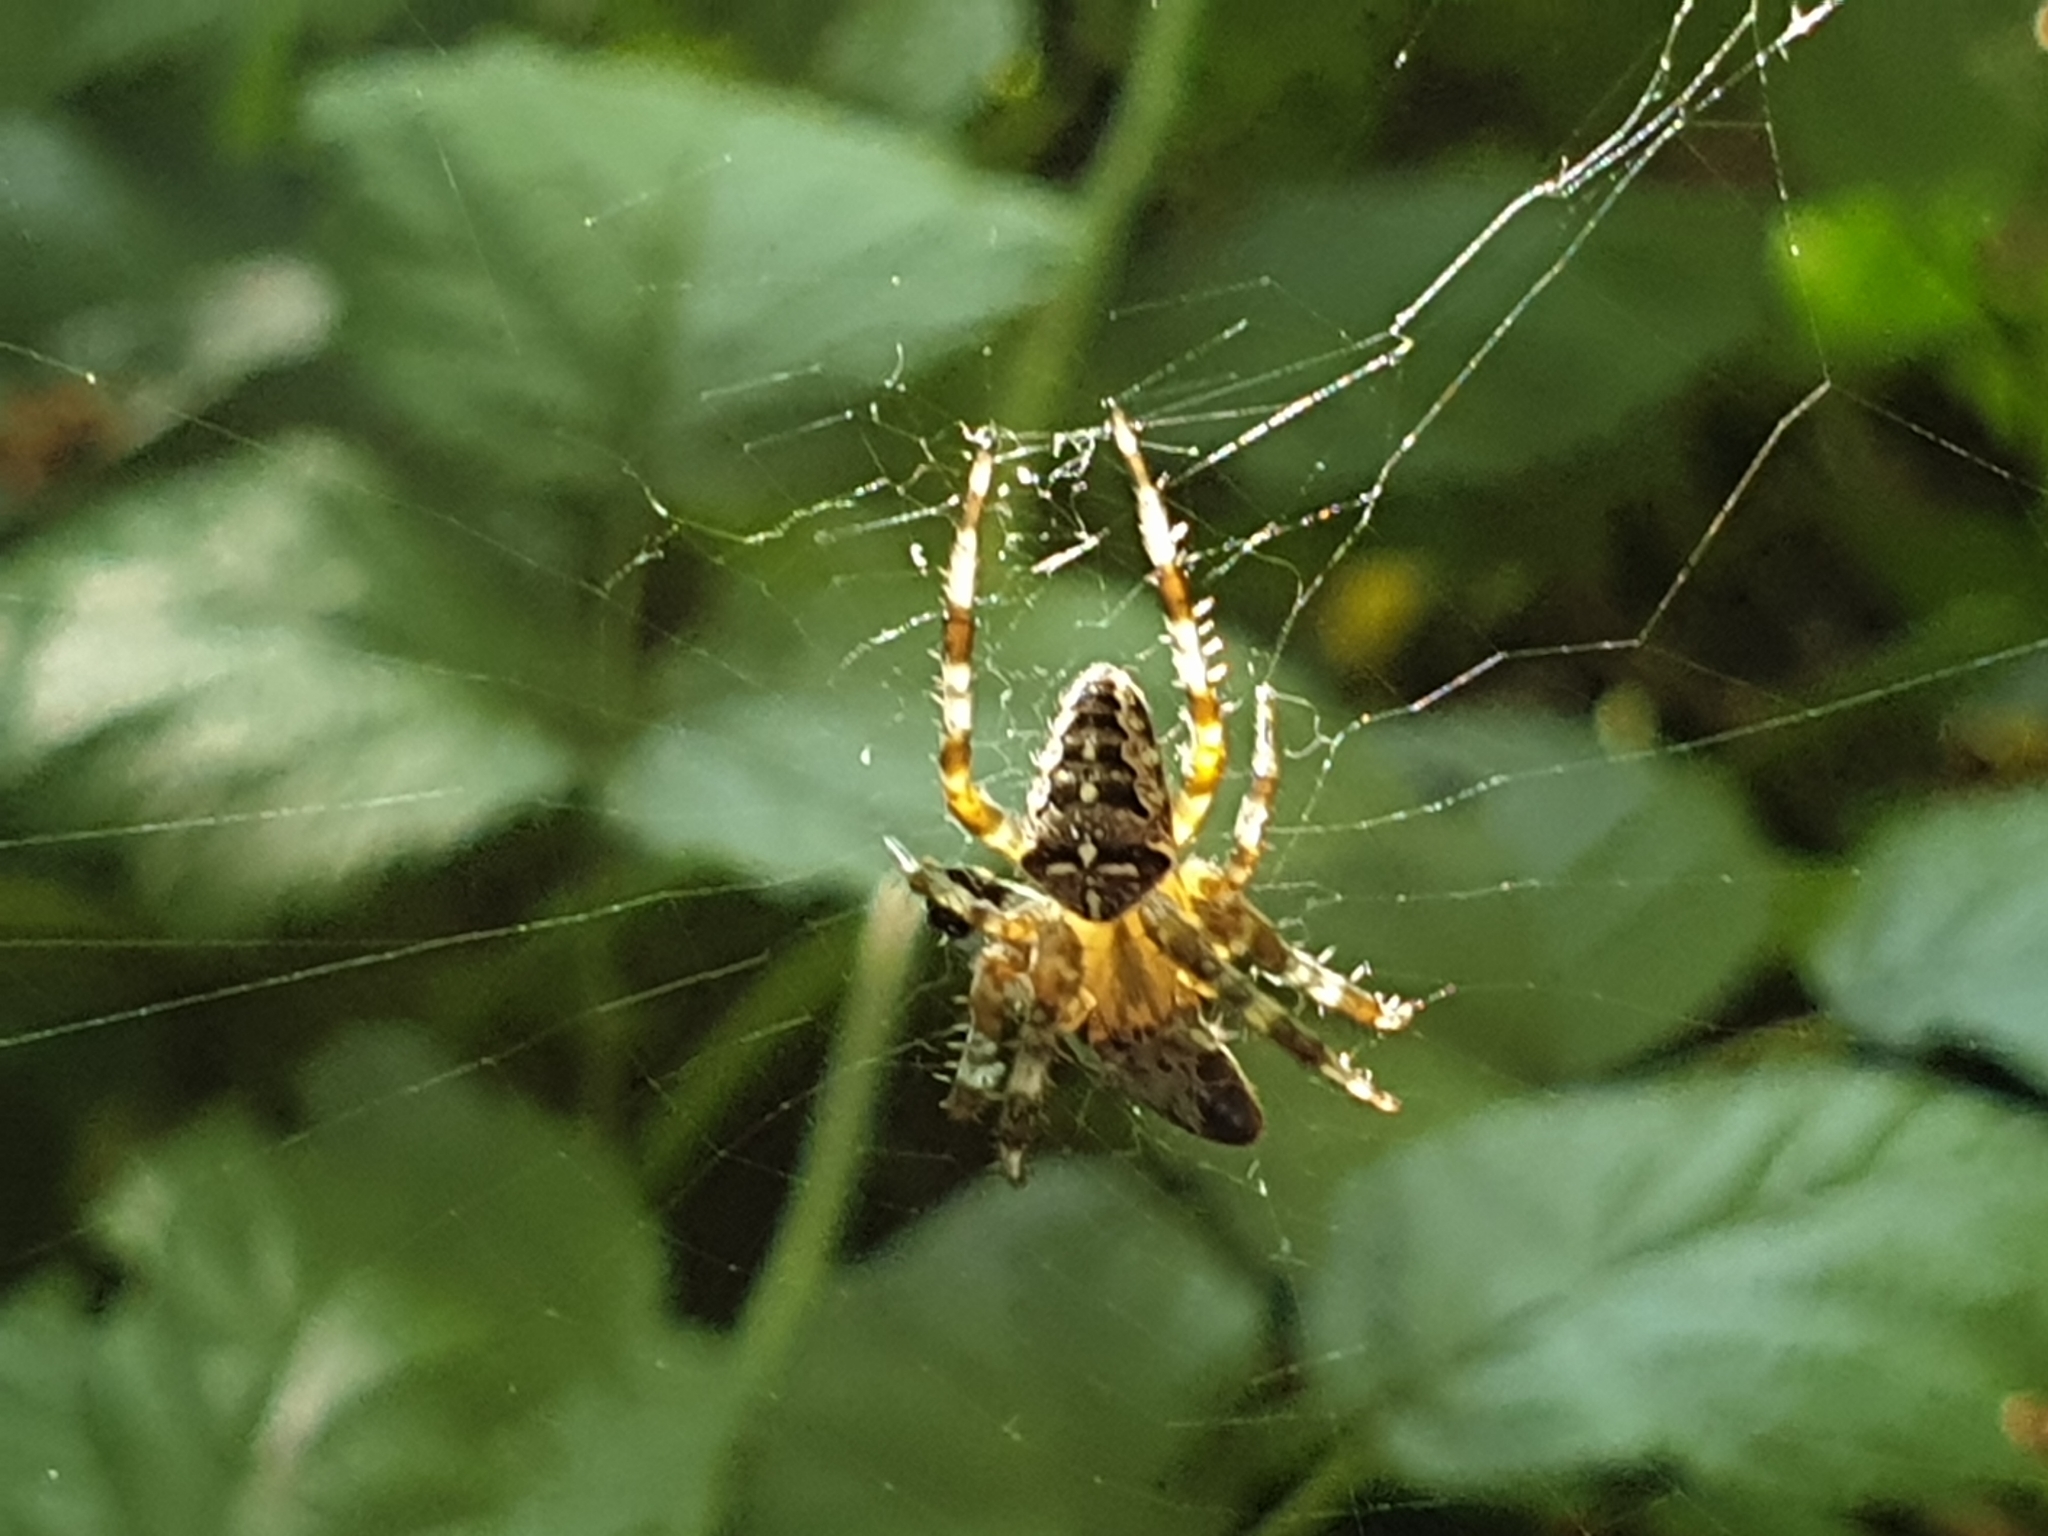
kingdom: Animalia
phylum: Arthropoda
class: Arachnida
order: Araneae
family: Araneidae
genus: Araneus
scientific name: Araneus diadematus
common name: Cross orbweaver
